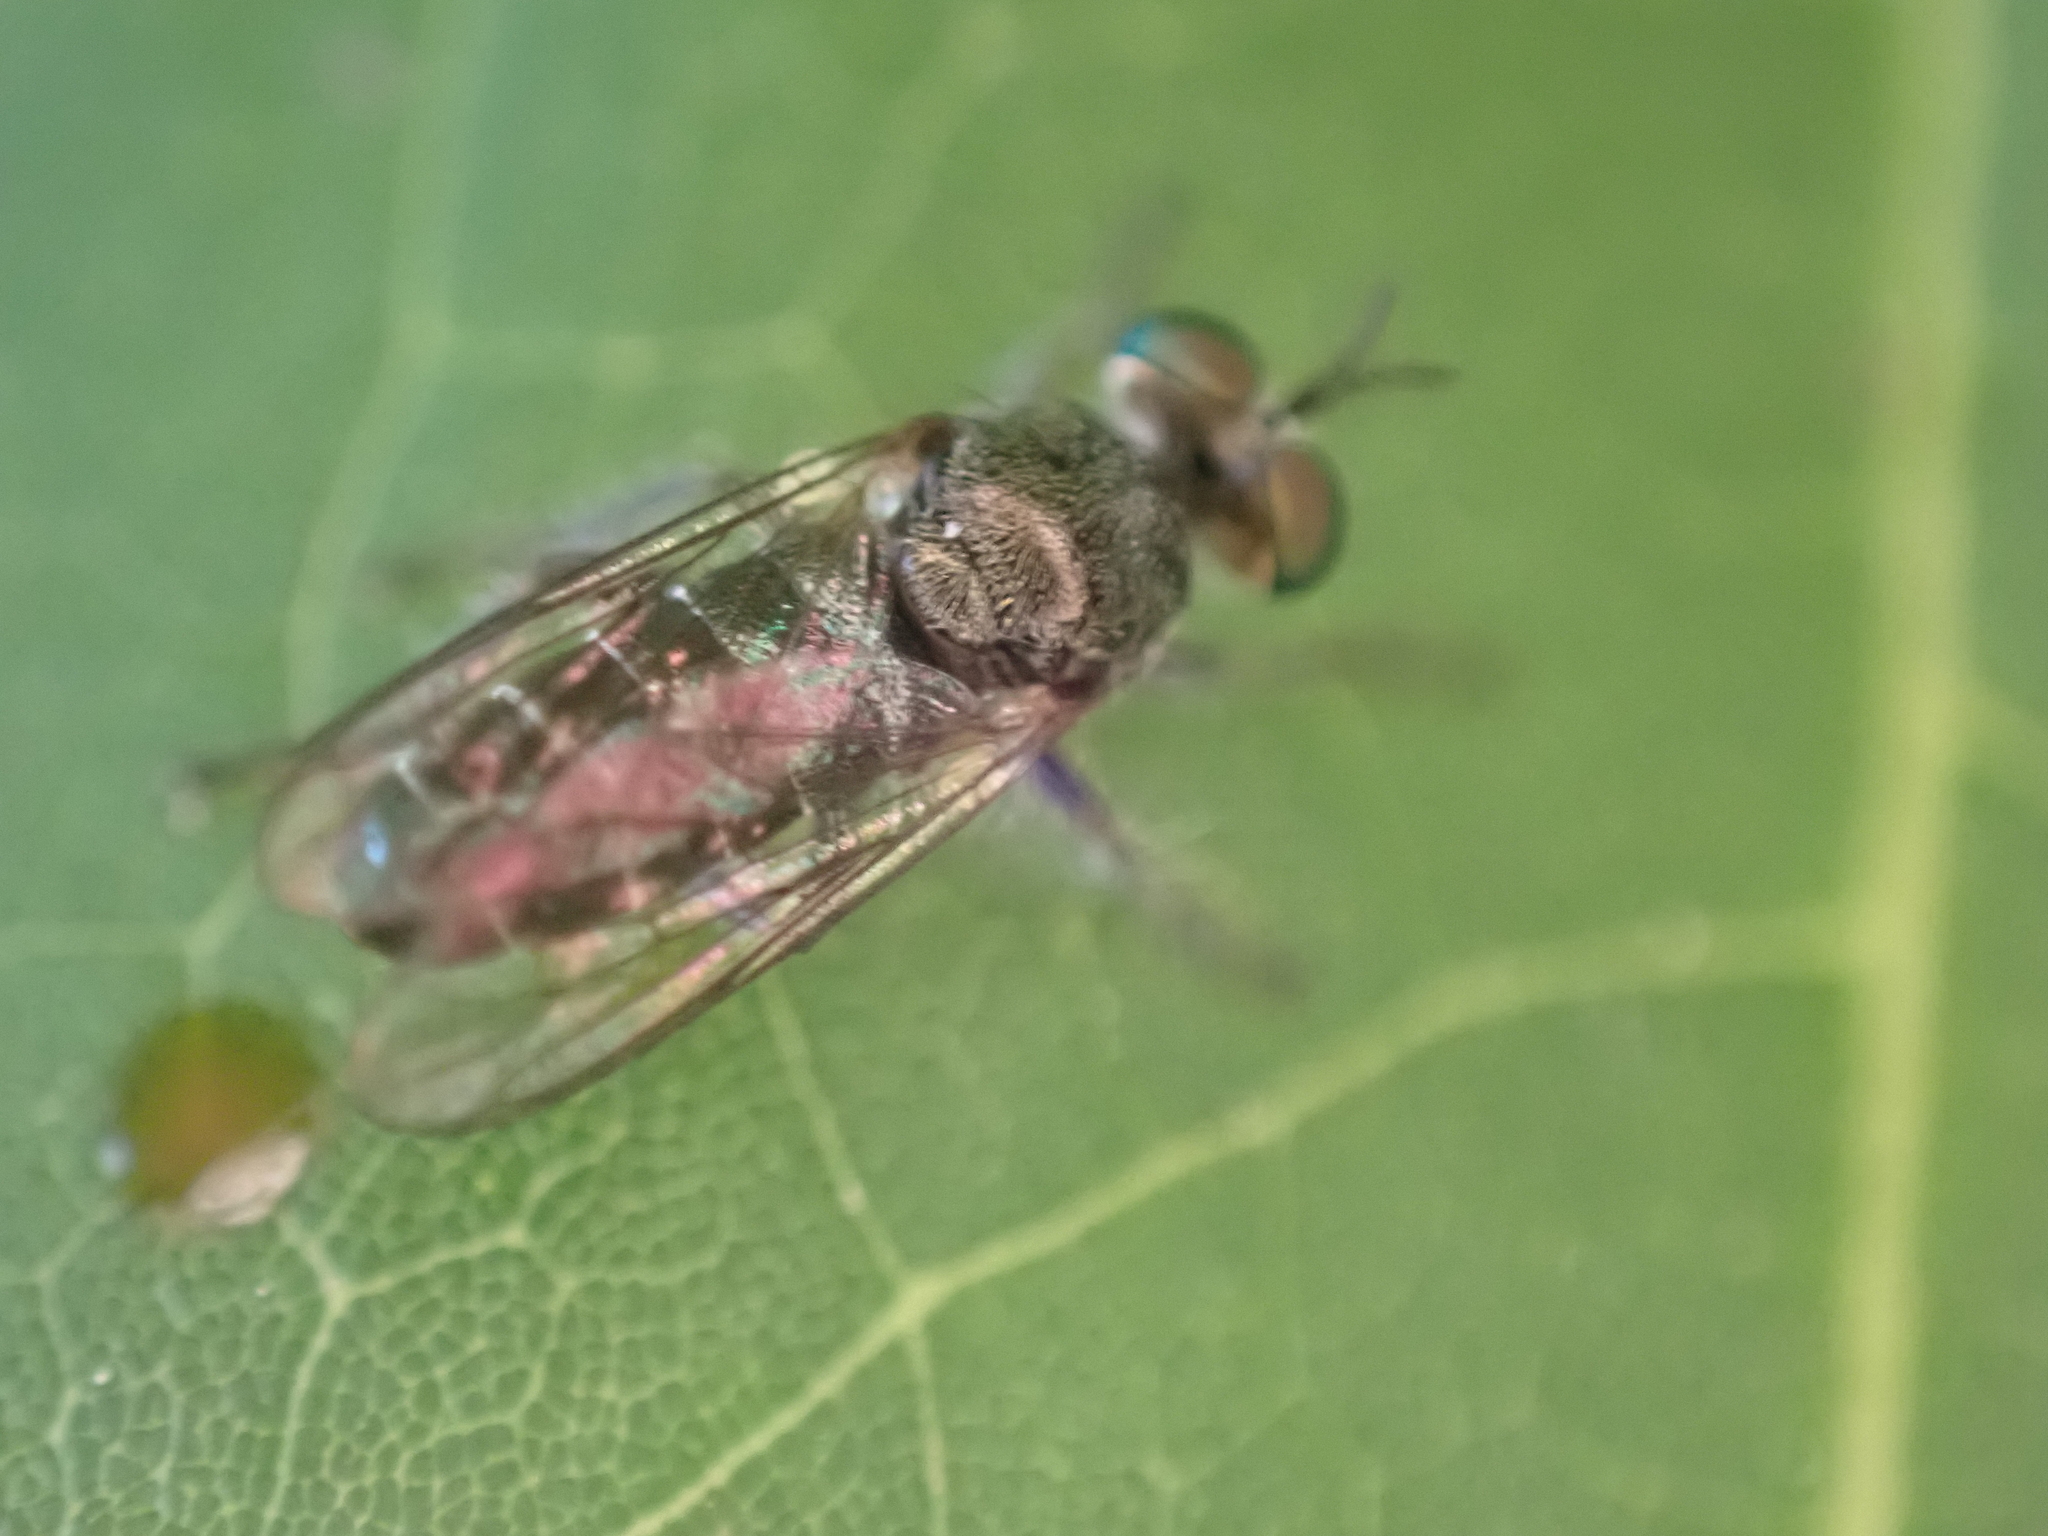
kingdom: Animalia
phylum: Arthropoda
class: Insecta
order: Diptera
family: Asilidae
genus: Atomosia
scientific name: Atomosia puella
